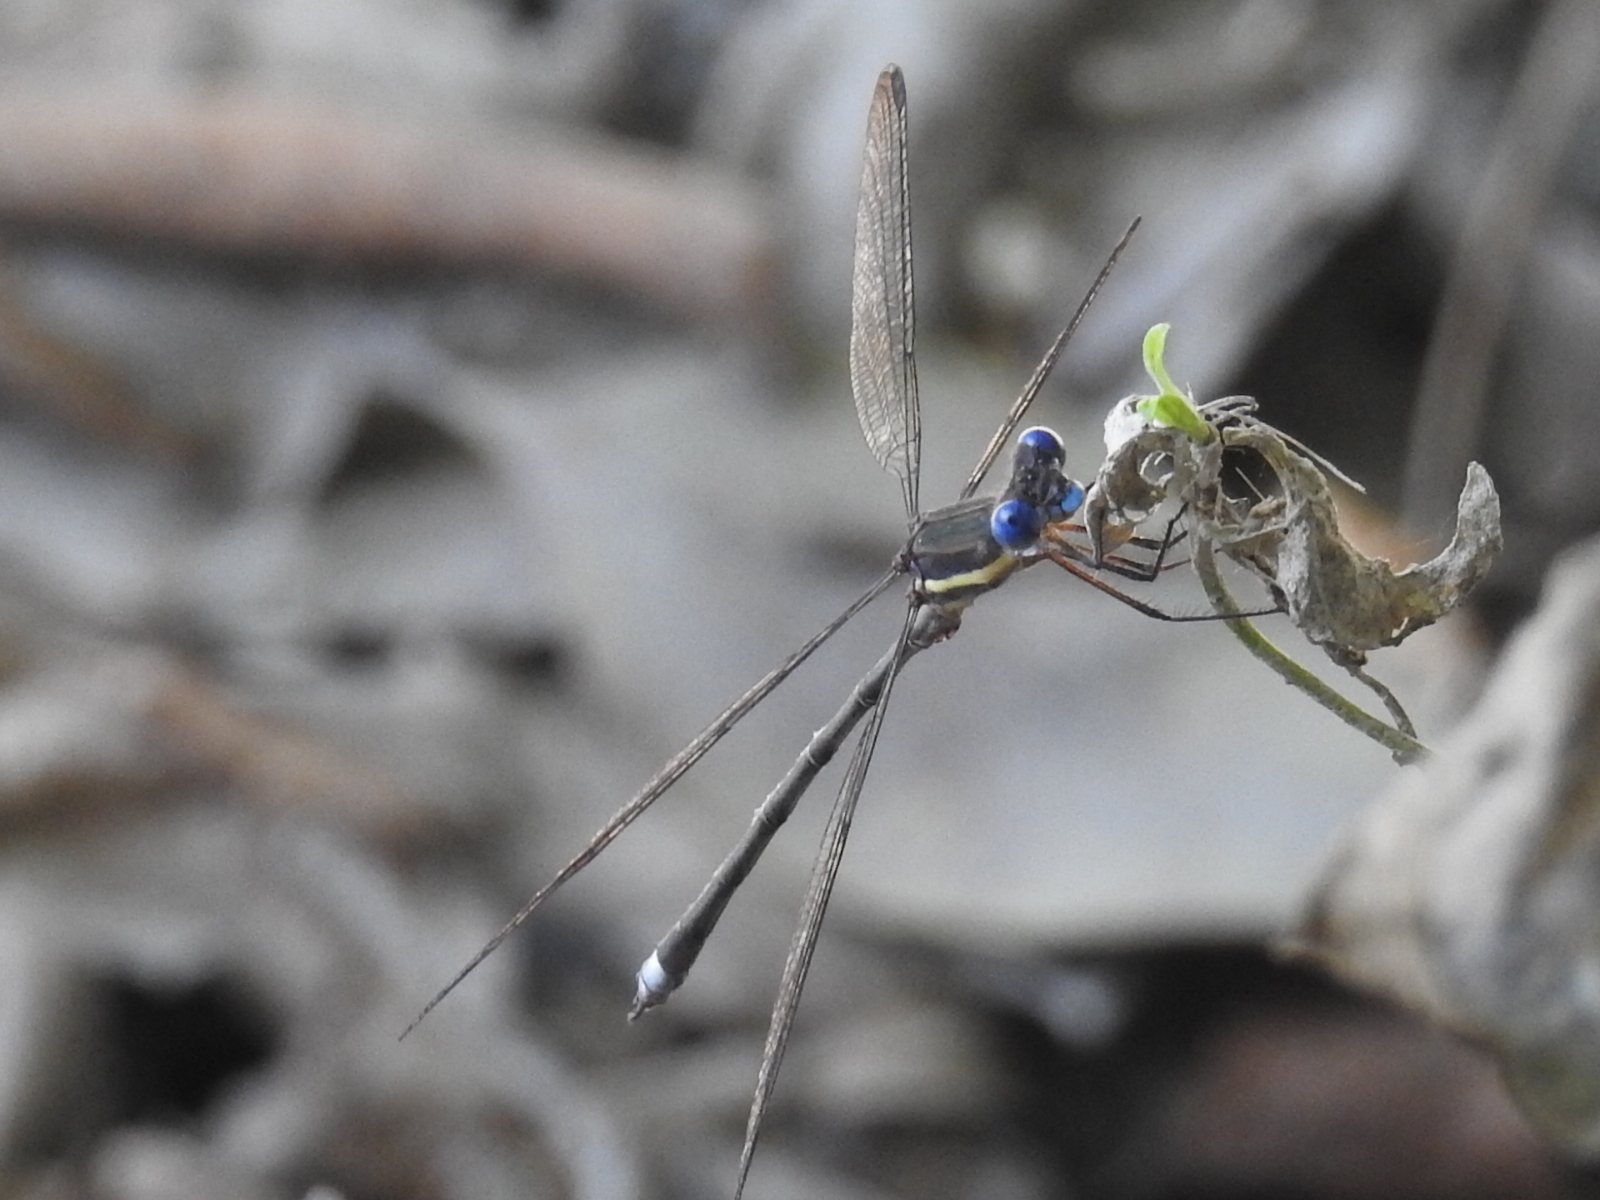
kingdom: Animalia
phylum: Arthropoda
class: Insecta
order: Odonata
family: Lestidae
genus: Archilestes
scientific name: Archilestes grandis
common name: Great spreadwing
